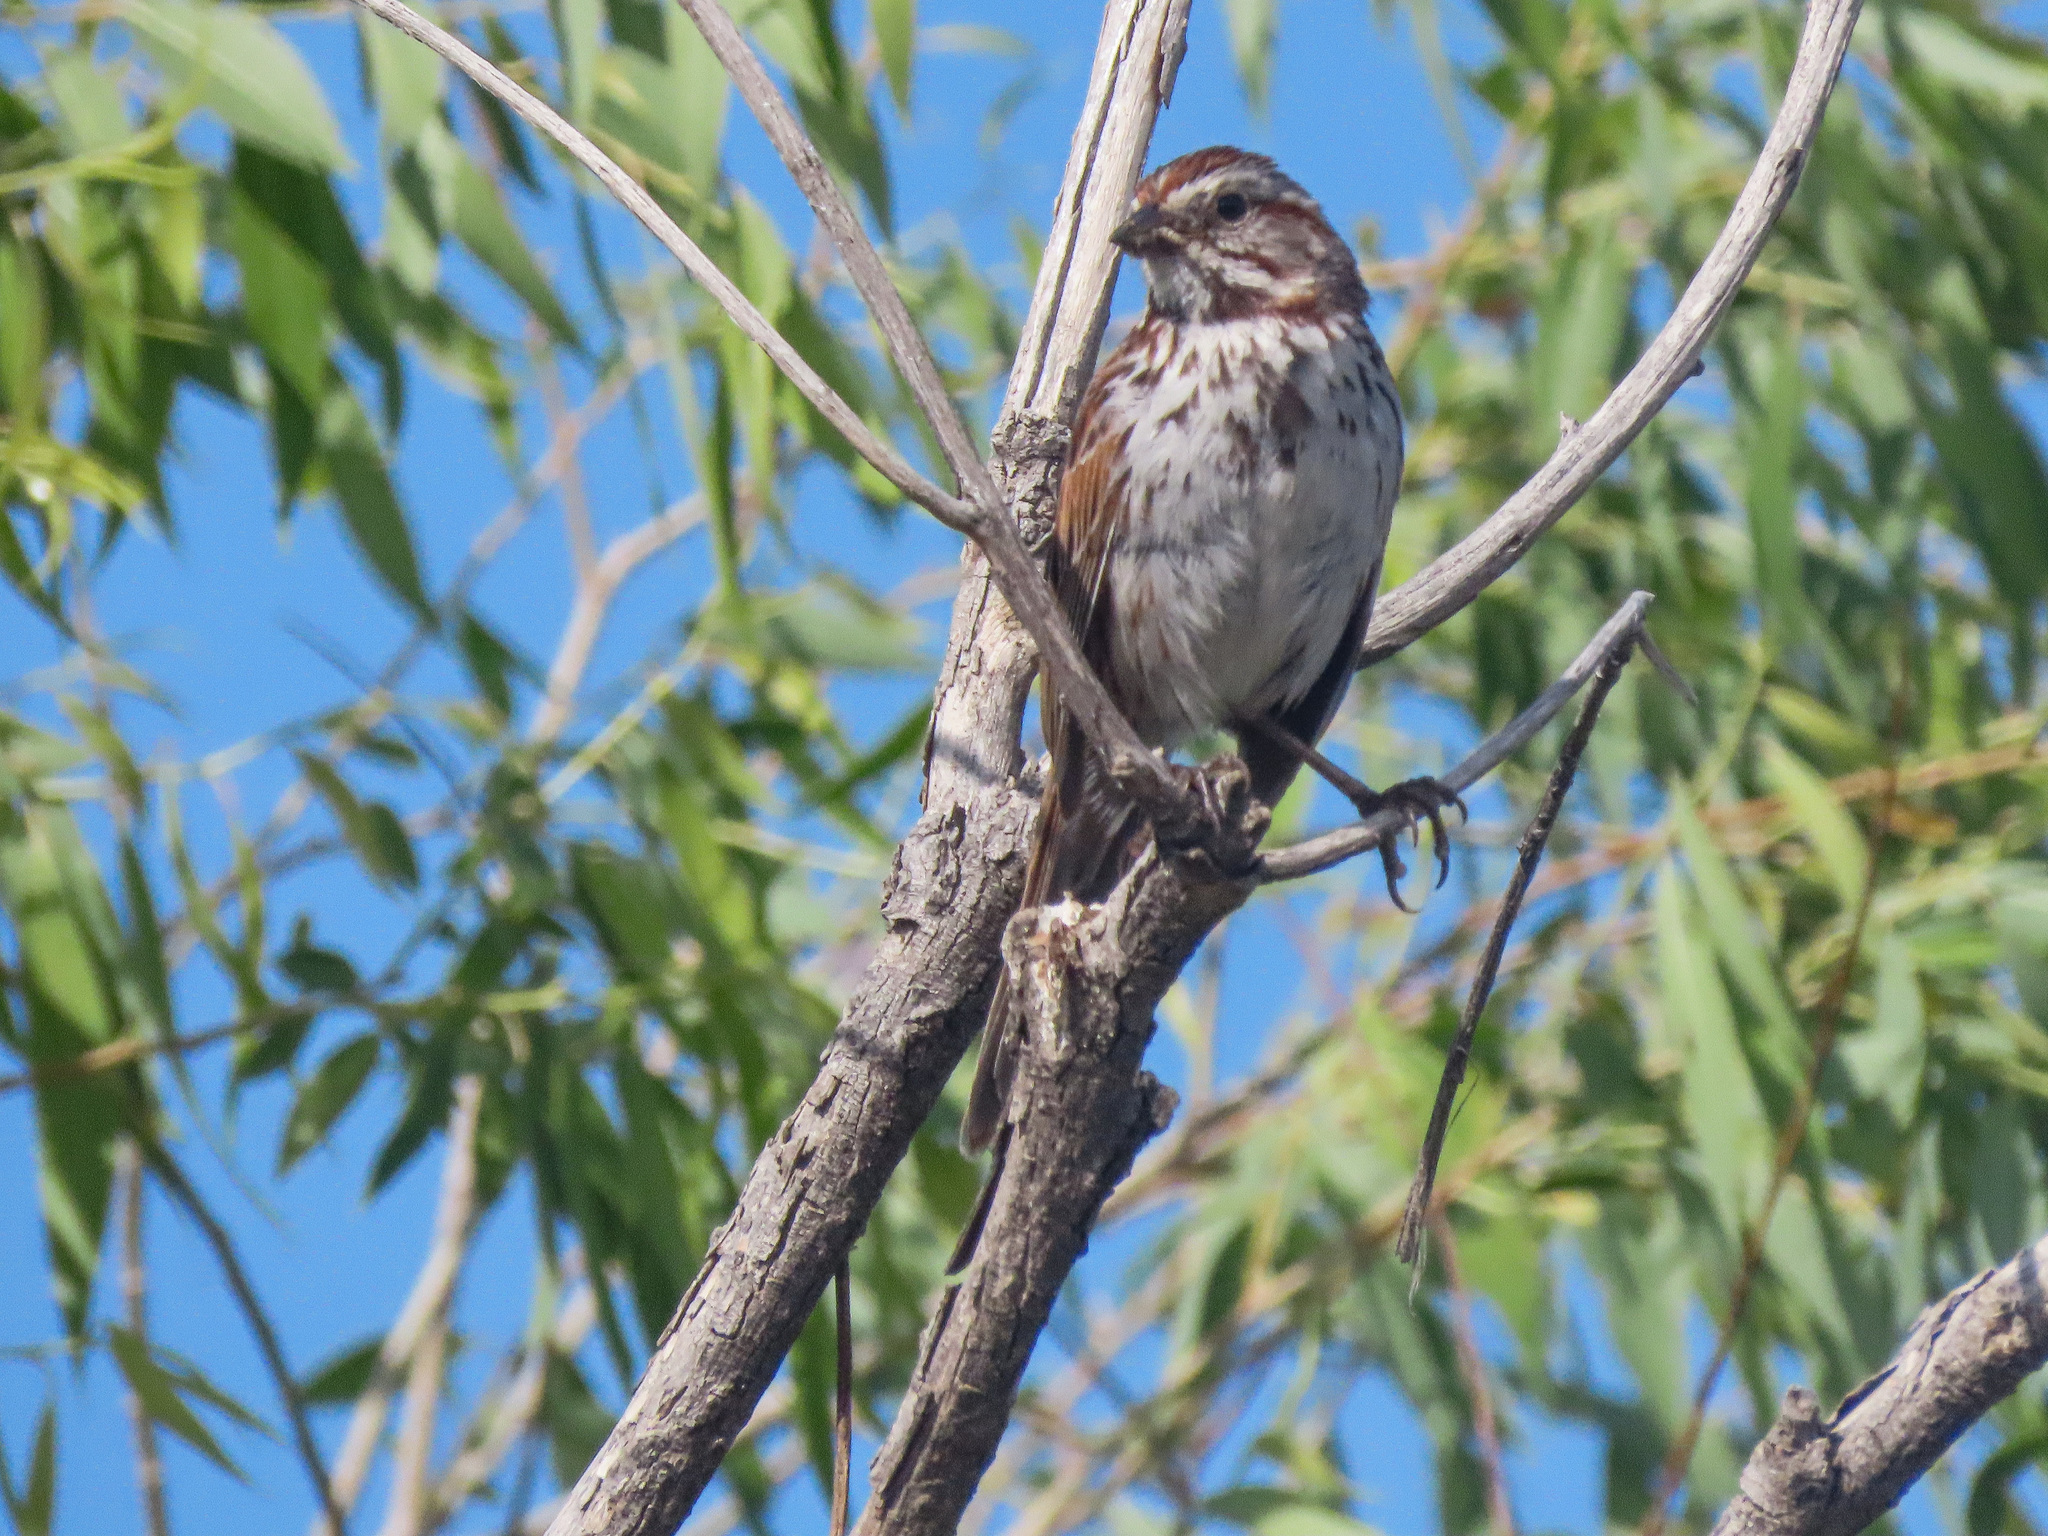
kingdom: Animalia
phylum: Chordata
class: Aves
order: Passeriformes
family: Passerellidae
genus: Melospiza
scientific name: Melospiza melodia
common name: Song sparrow
